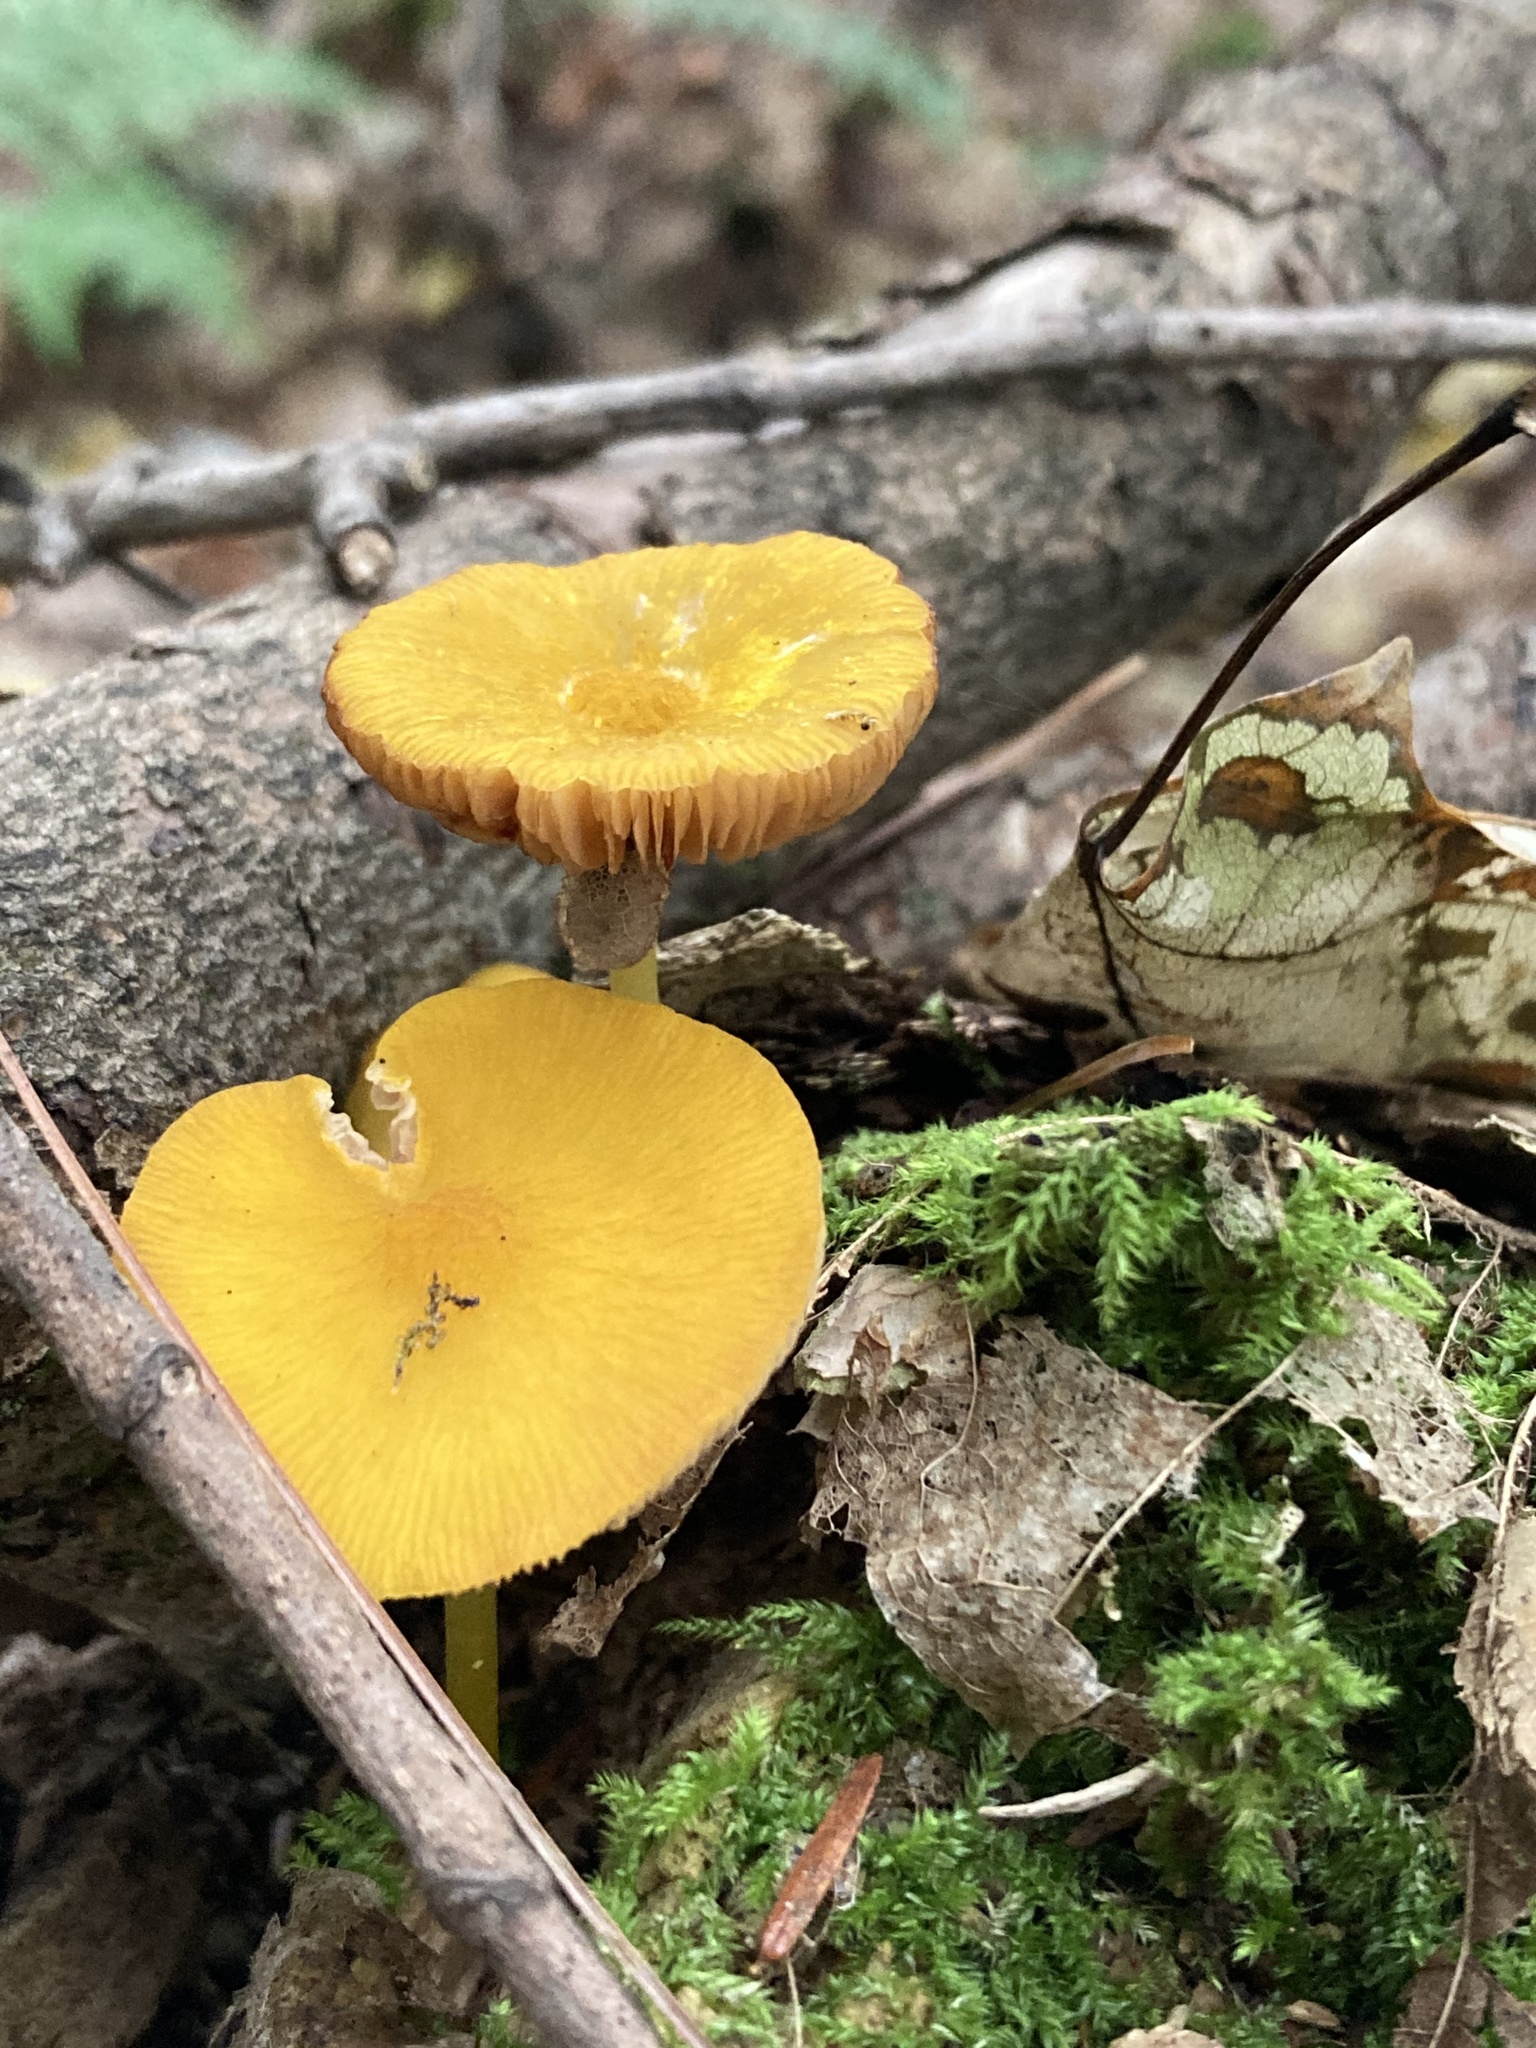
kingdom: Fungi
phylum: Basidiomycota
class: Agaricomycetes
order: Agaricales
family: Pluteaceae
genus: Pluteus
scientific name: Pluteus chrysophlebius
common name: Yellow deer mushroom
